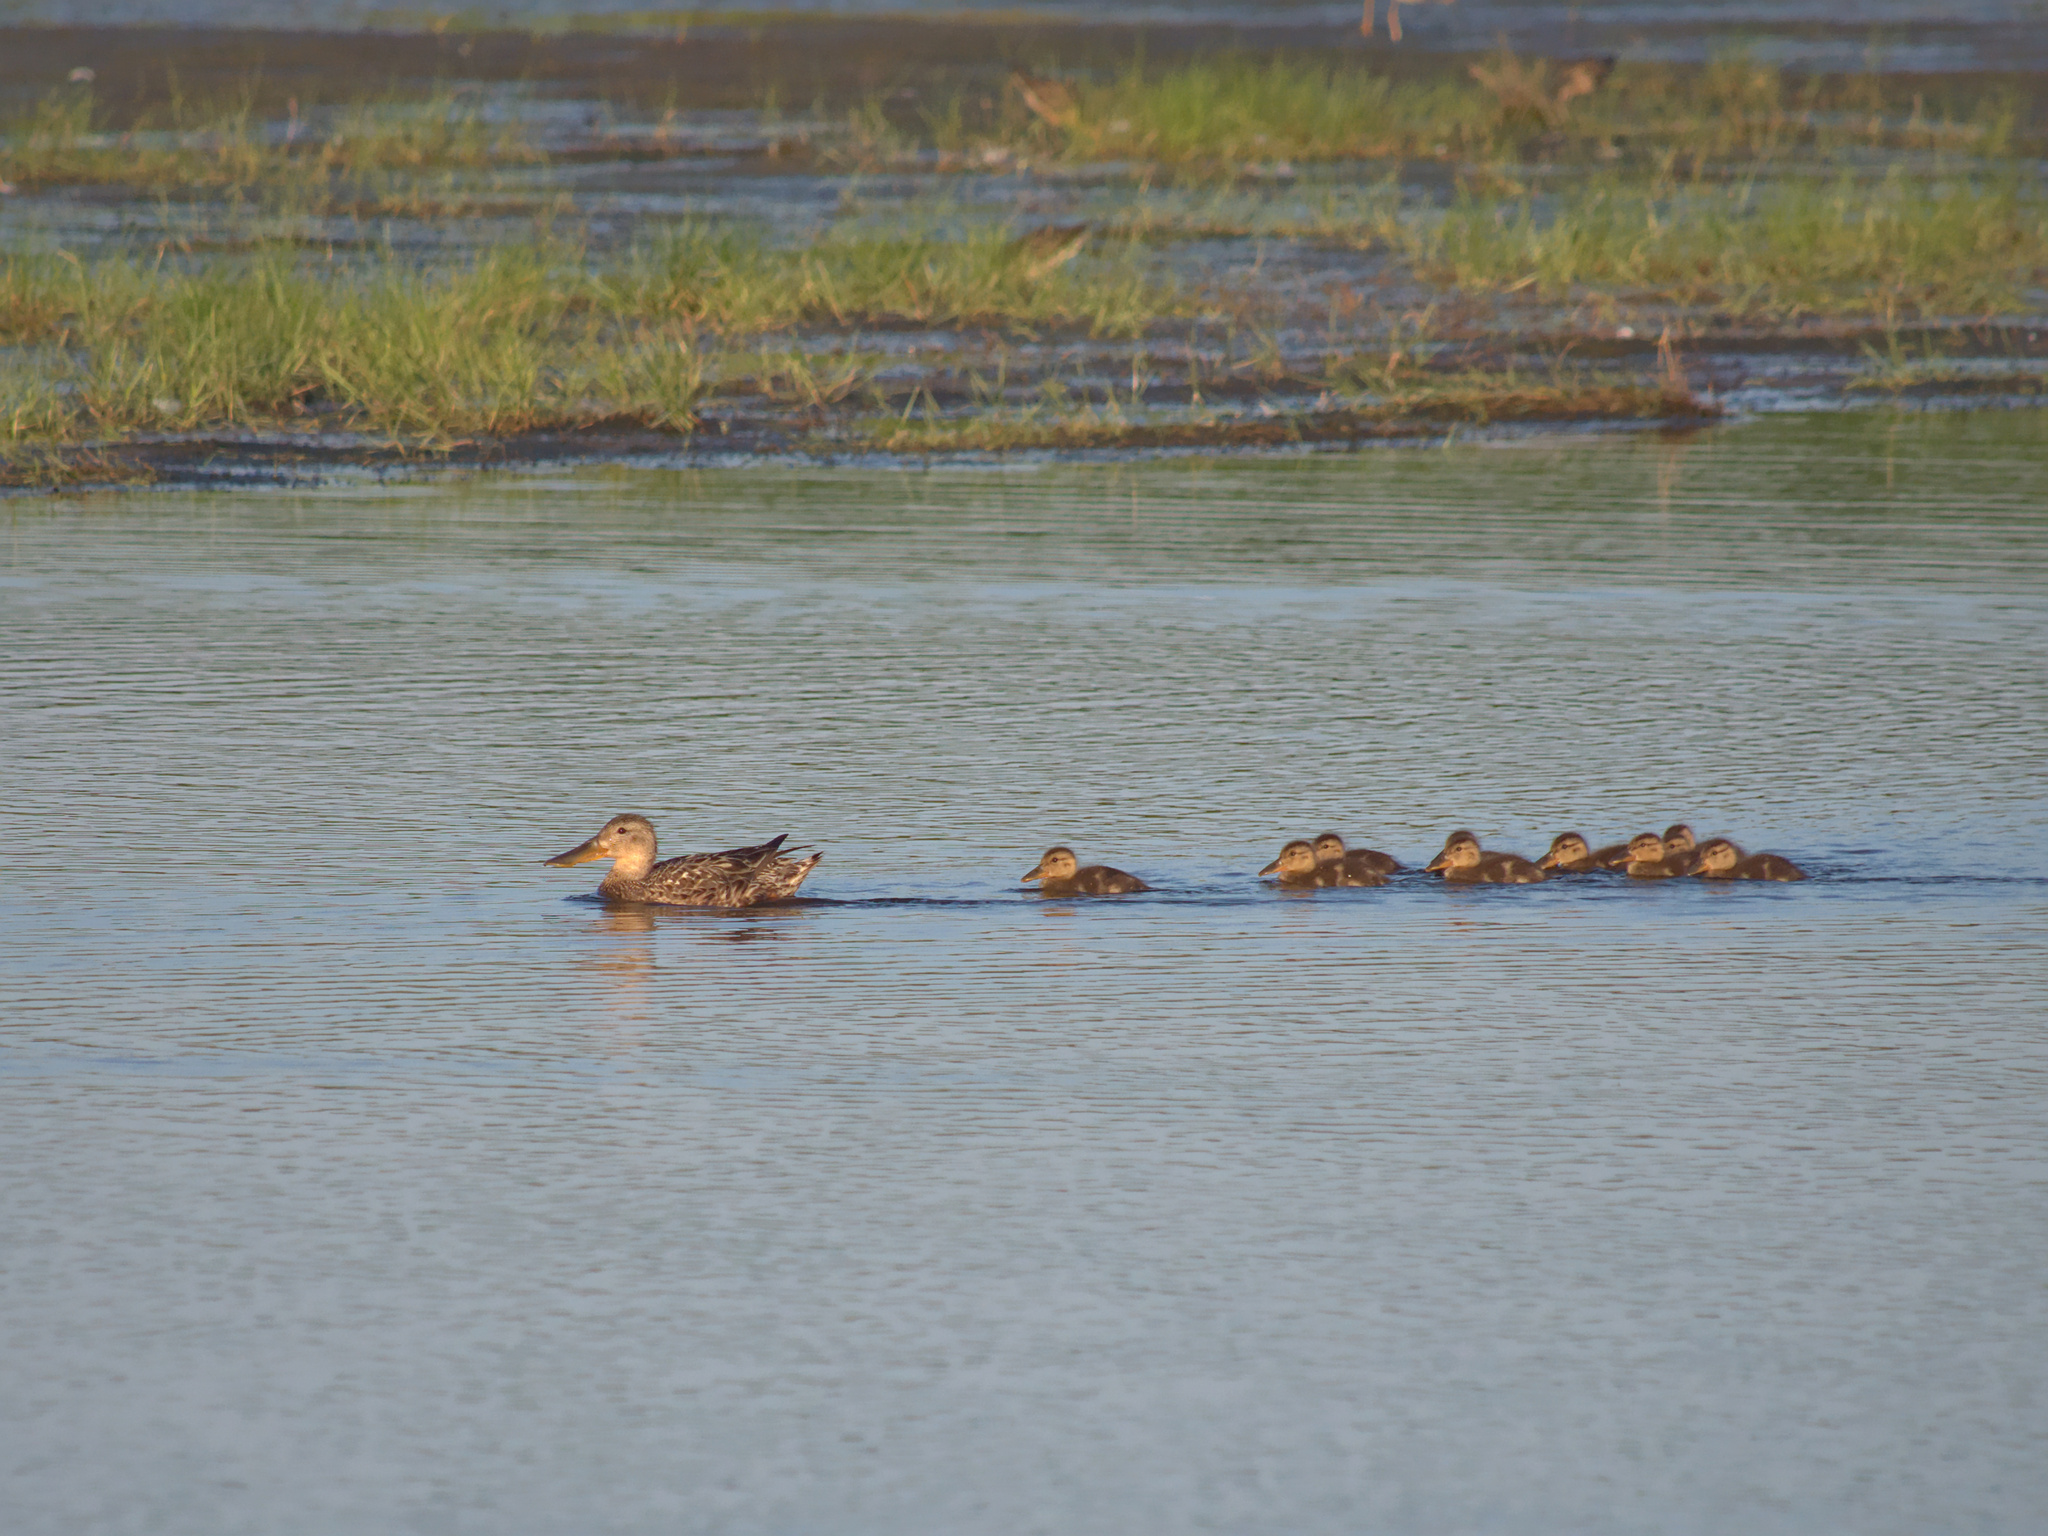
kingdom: Animalia
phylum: Chordata
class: Aves
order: Anseriformes
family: Anatidae
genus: Spatula
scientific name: Spatula clypeata
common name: Northern shoveler
